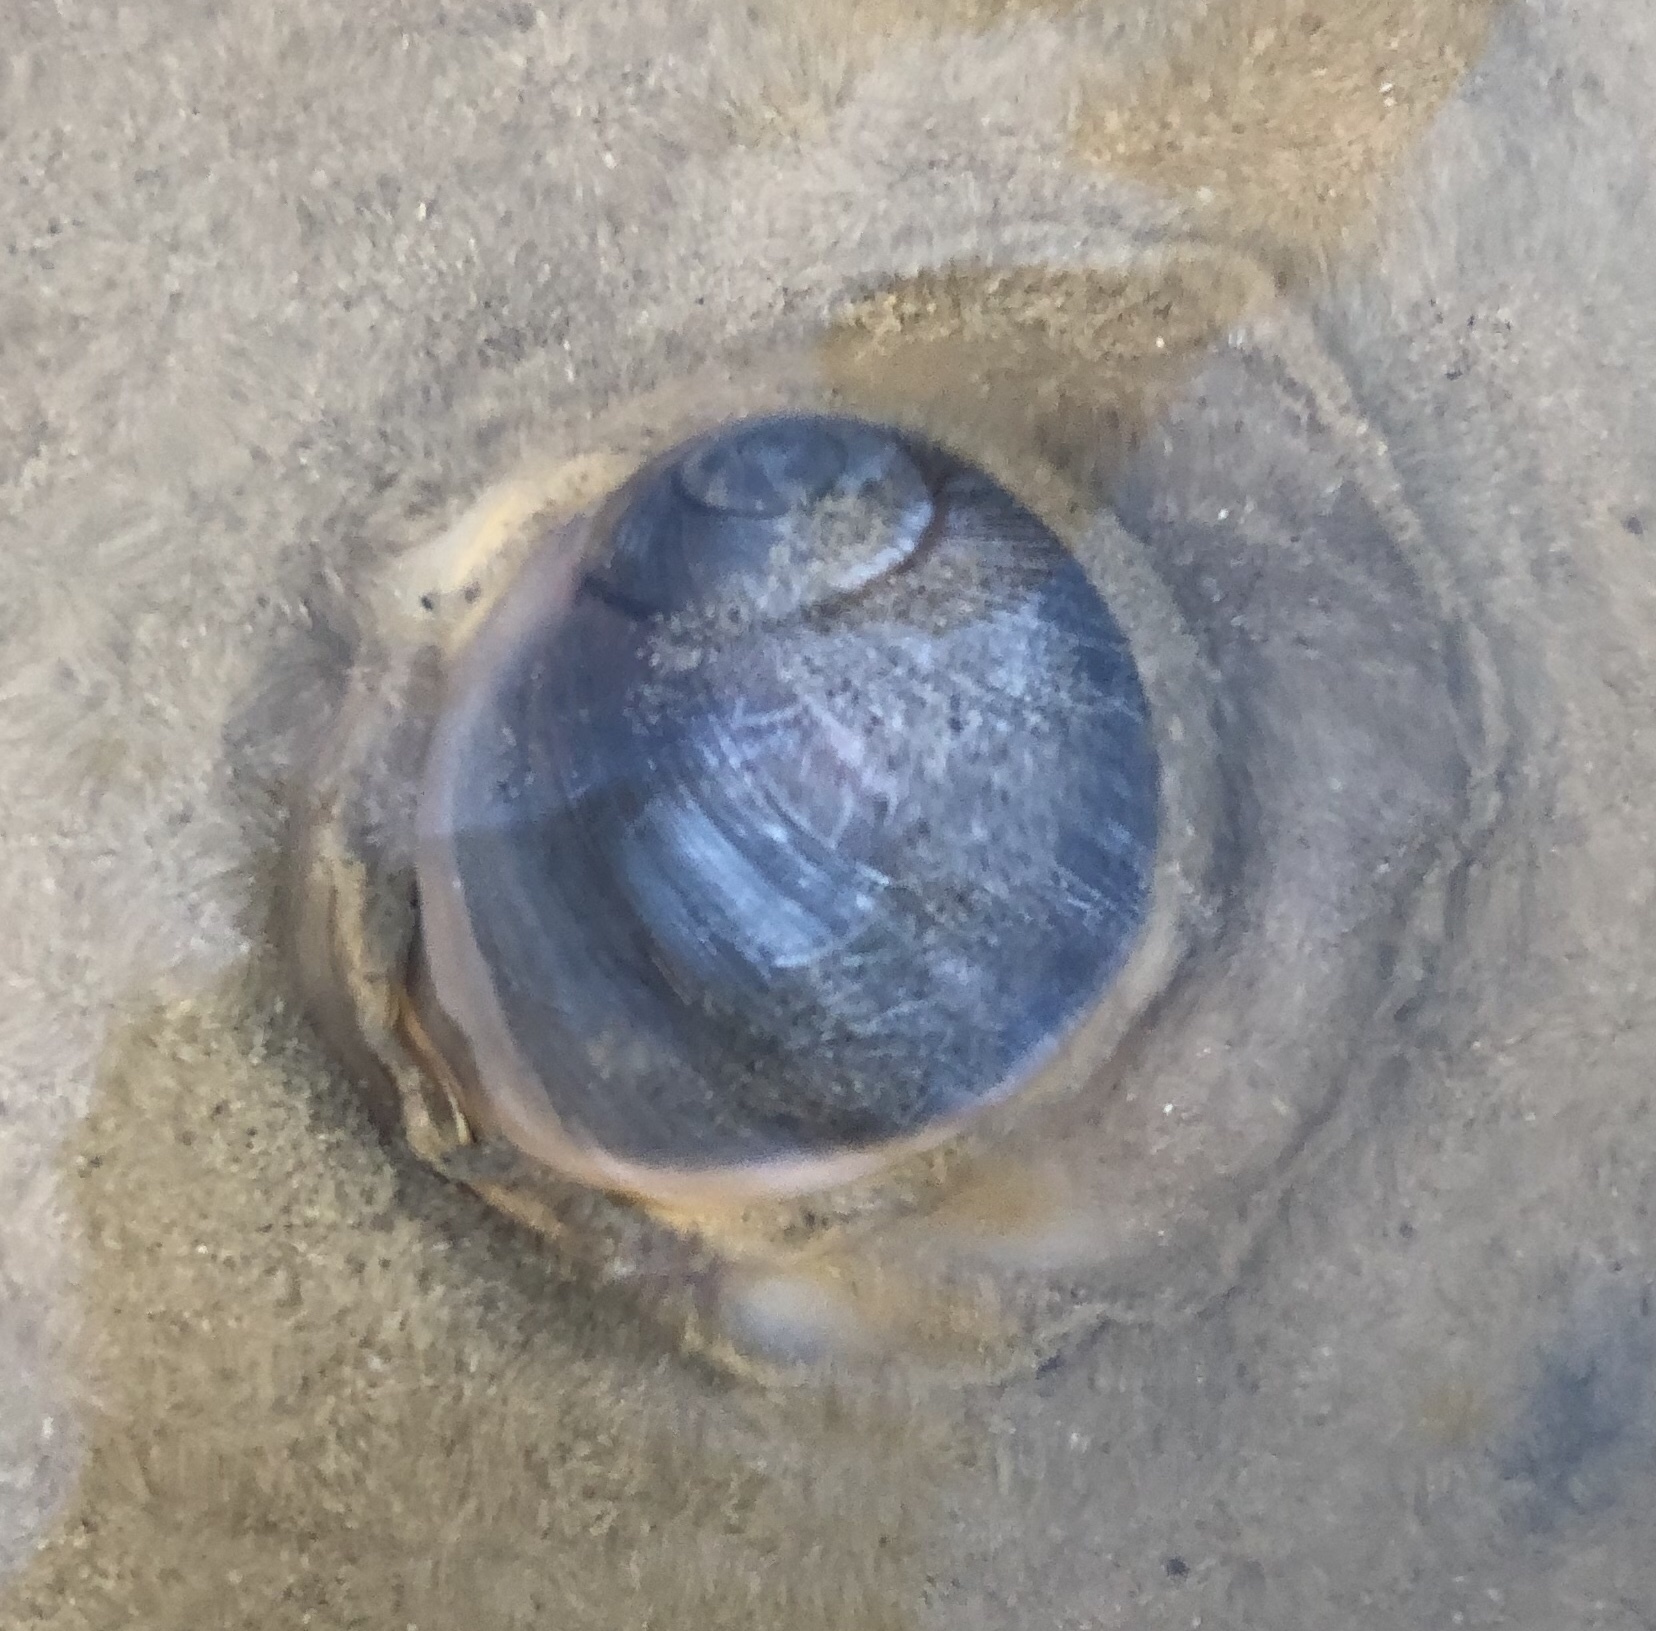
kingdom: Animalia
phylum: Mollusca
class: Gastropoda
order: Littorinimorpha
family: Naticidae
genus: Neverita
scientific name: Neverita duplicata
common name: Lobed moonsnail
